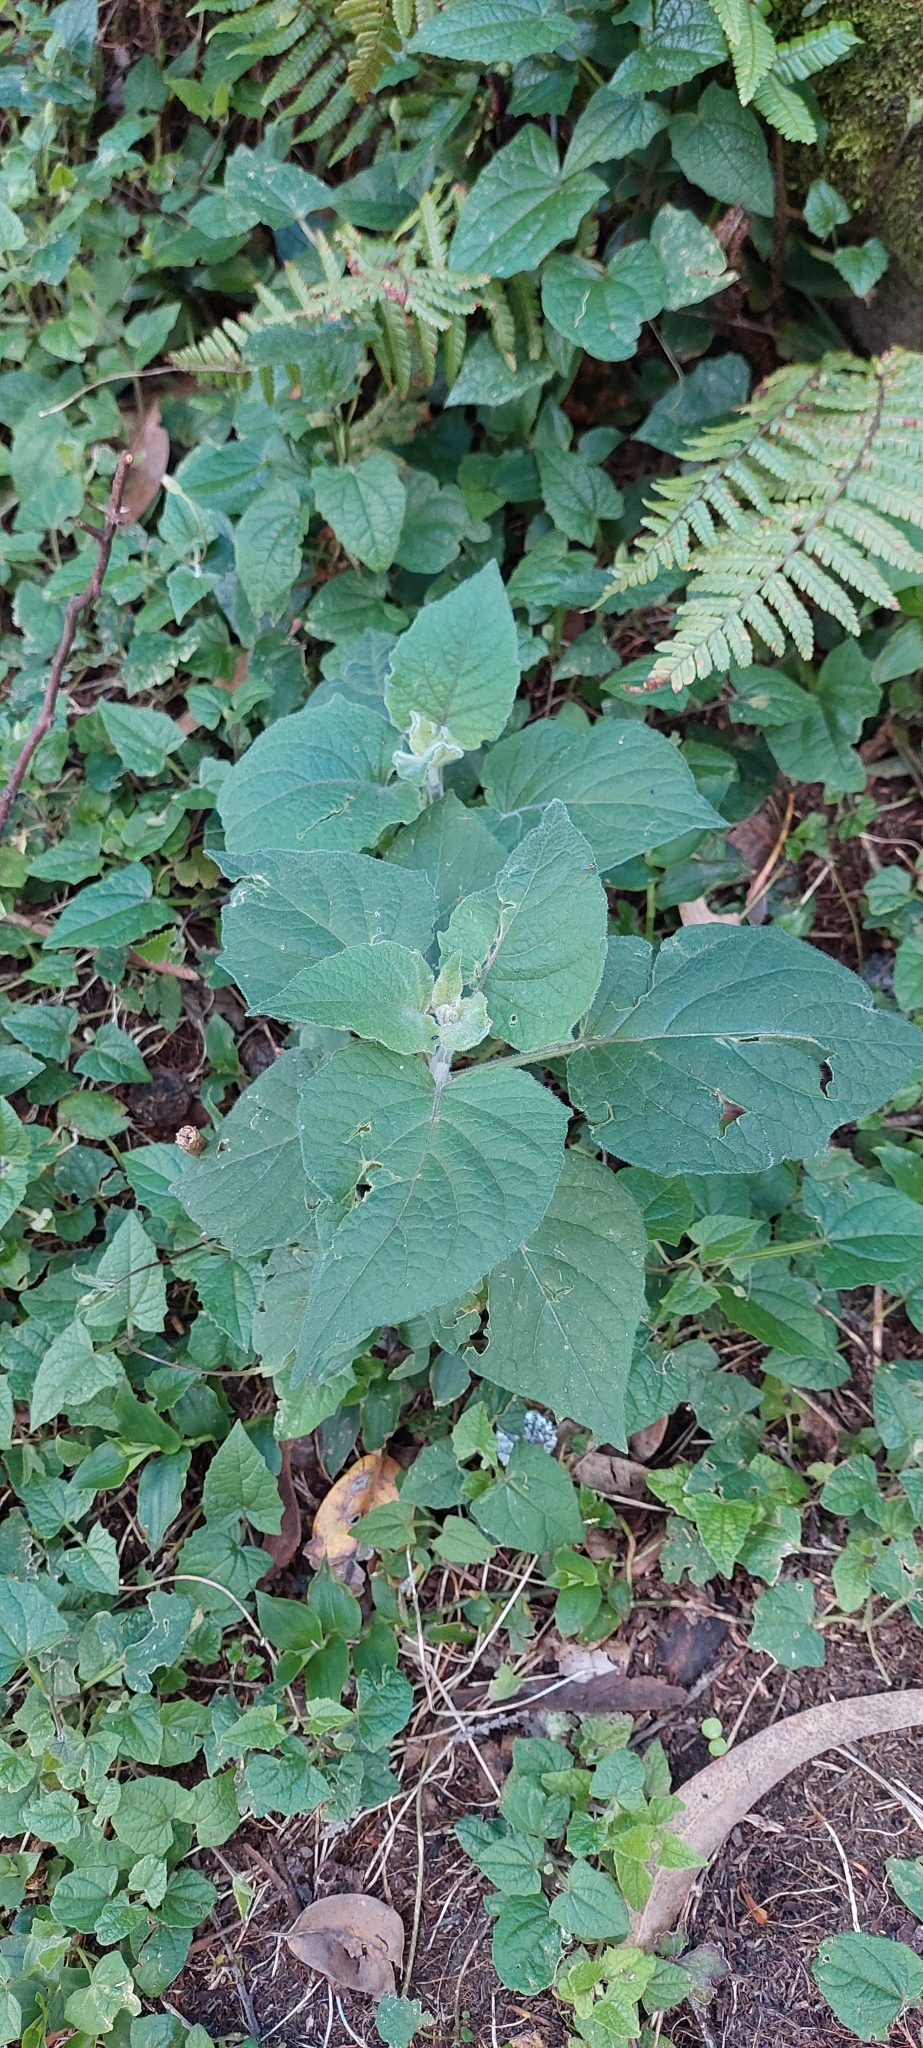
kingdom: Plantae
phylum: Tracheophyta
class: Magnoliopsida
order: Solanales
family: Solanaceae
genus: Physalis
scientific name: Physalis peruviana
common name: Cape-gooseberry
